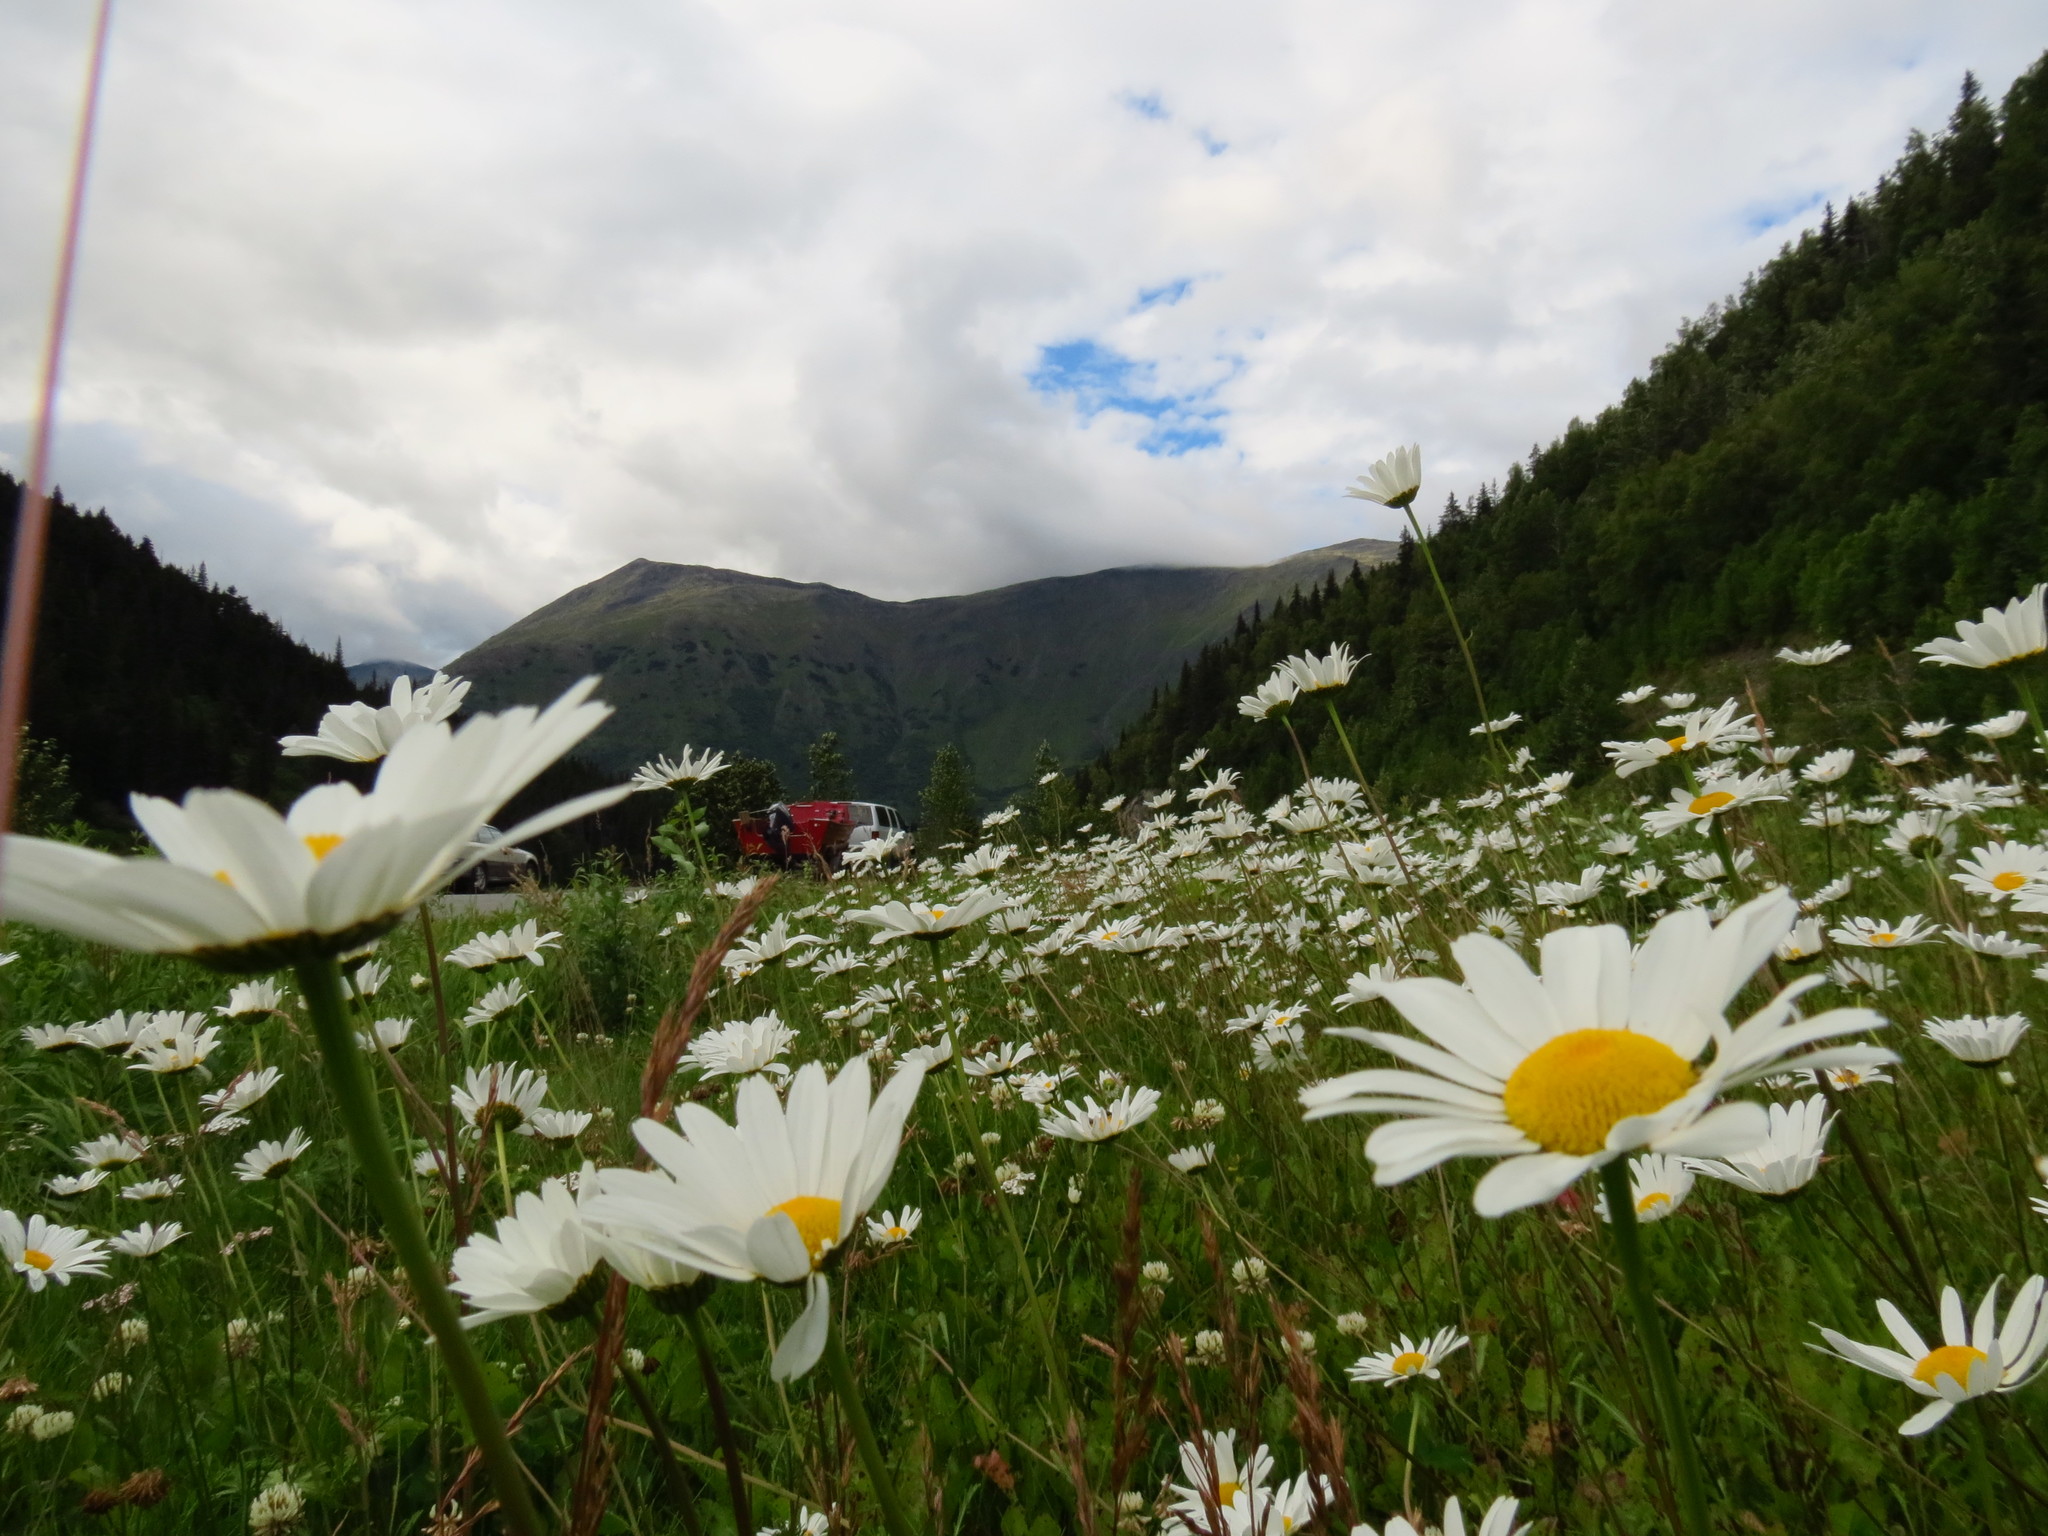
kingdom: Plantae
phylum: Tracheophyta
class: Magnoliopsida
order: Asterales
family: Asteraceae
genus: Leucanthemum
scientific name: Leucanthemum vulgare
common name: Oxeye daisy
